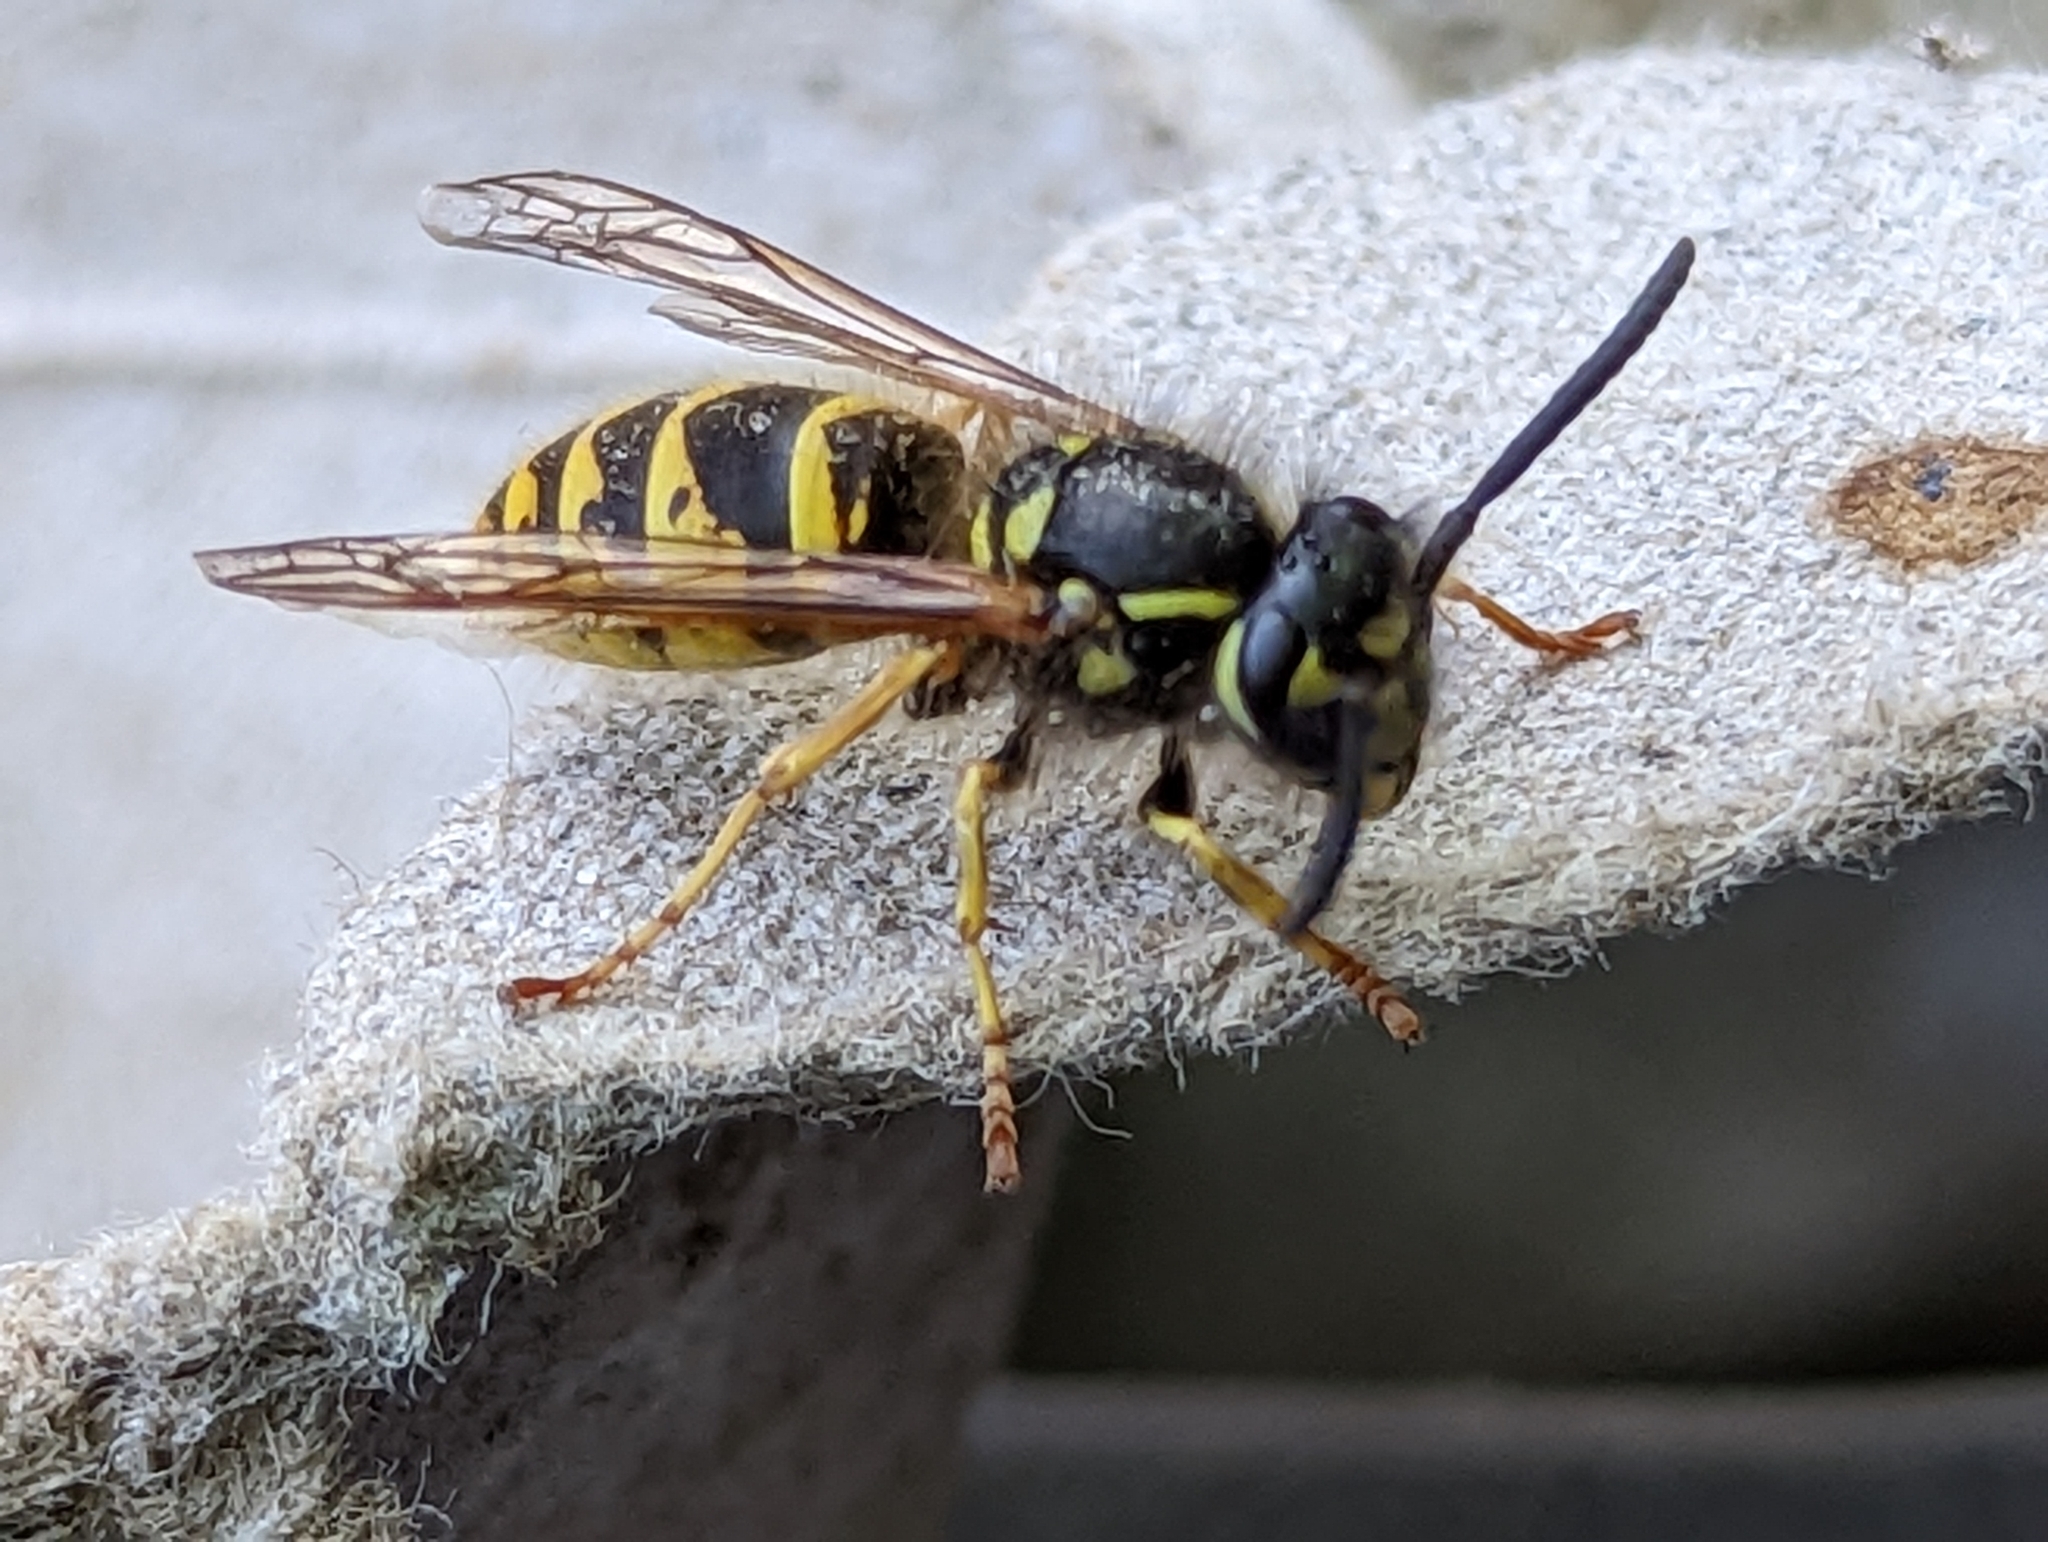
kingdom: Animalia
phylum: Arthropoda
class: Insecta
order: Hymenoptera
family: Vespidae
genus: Vespula
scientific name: Vespula vulgaris
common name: Common wasp
